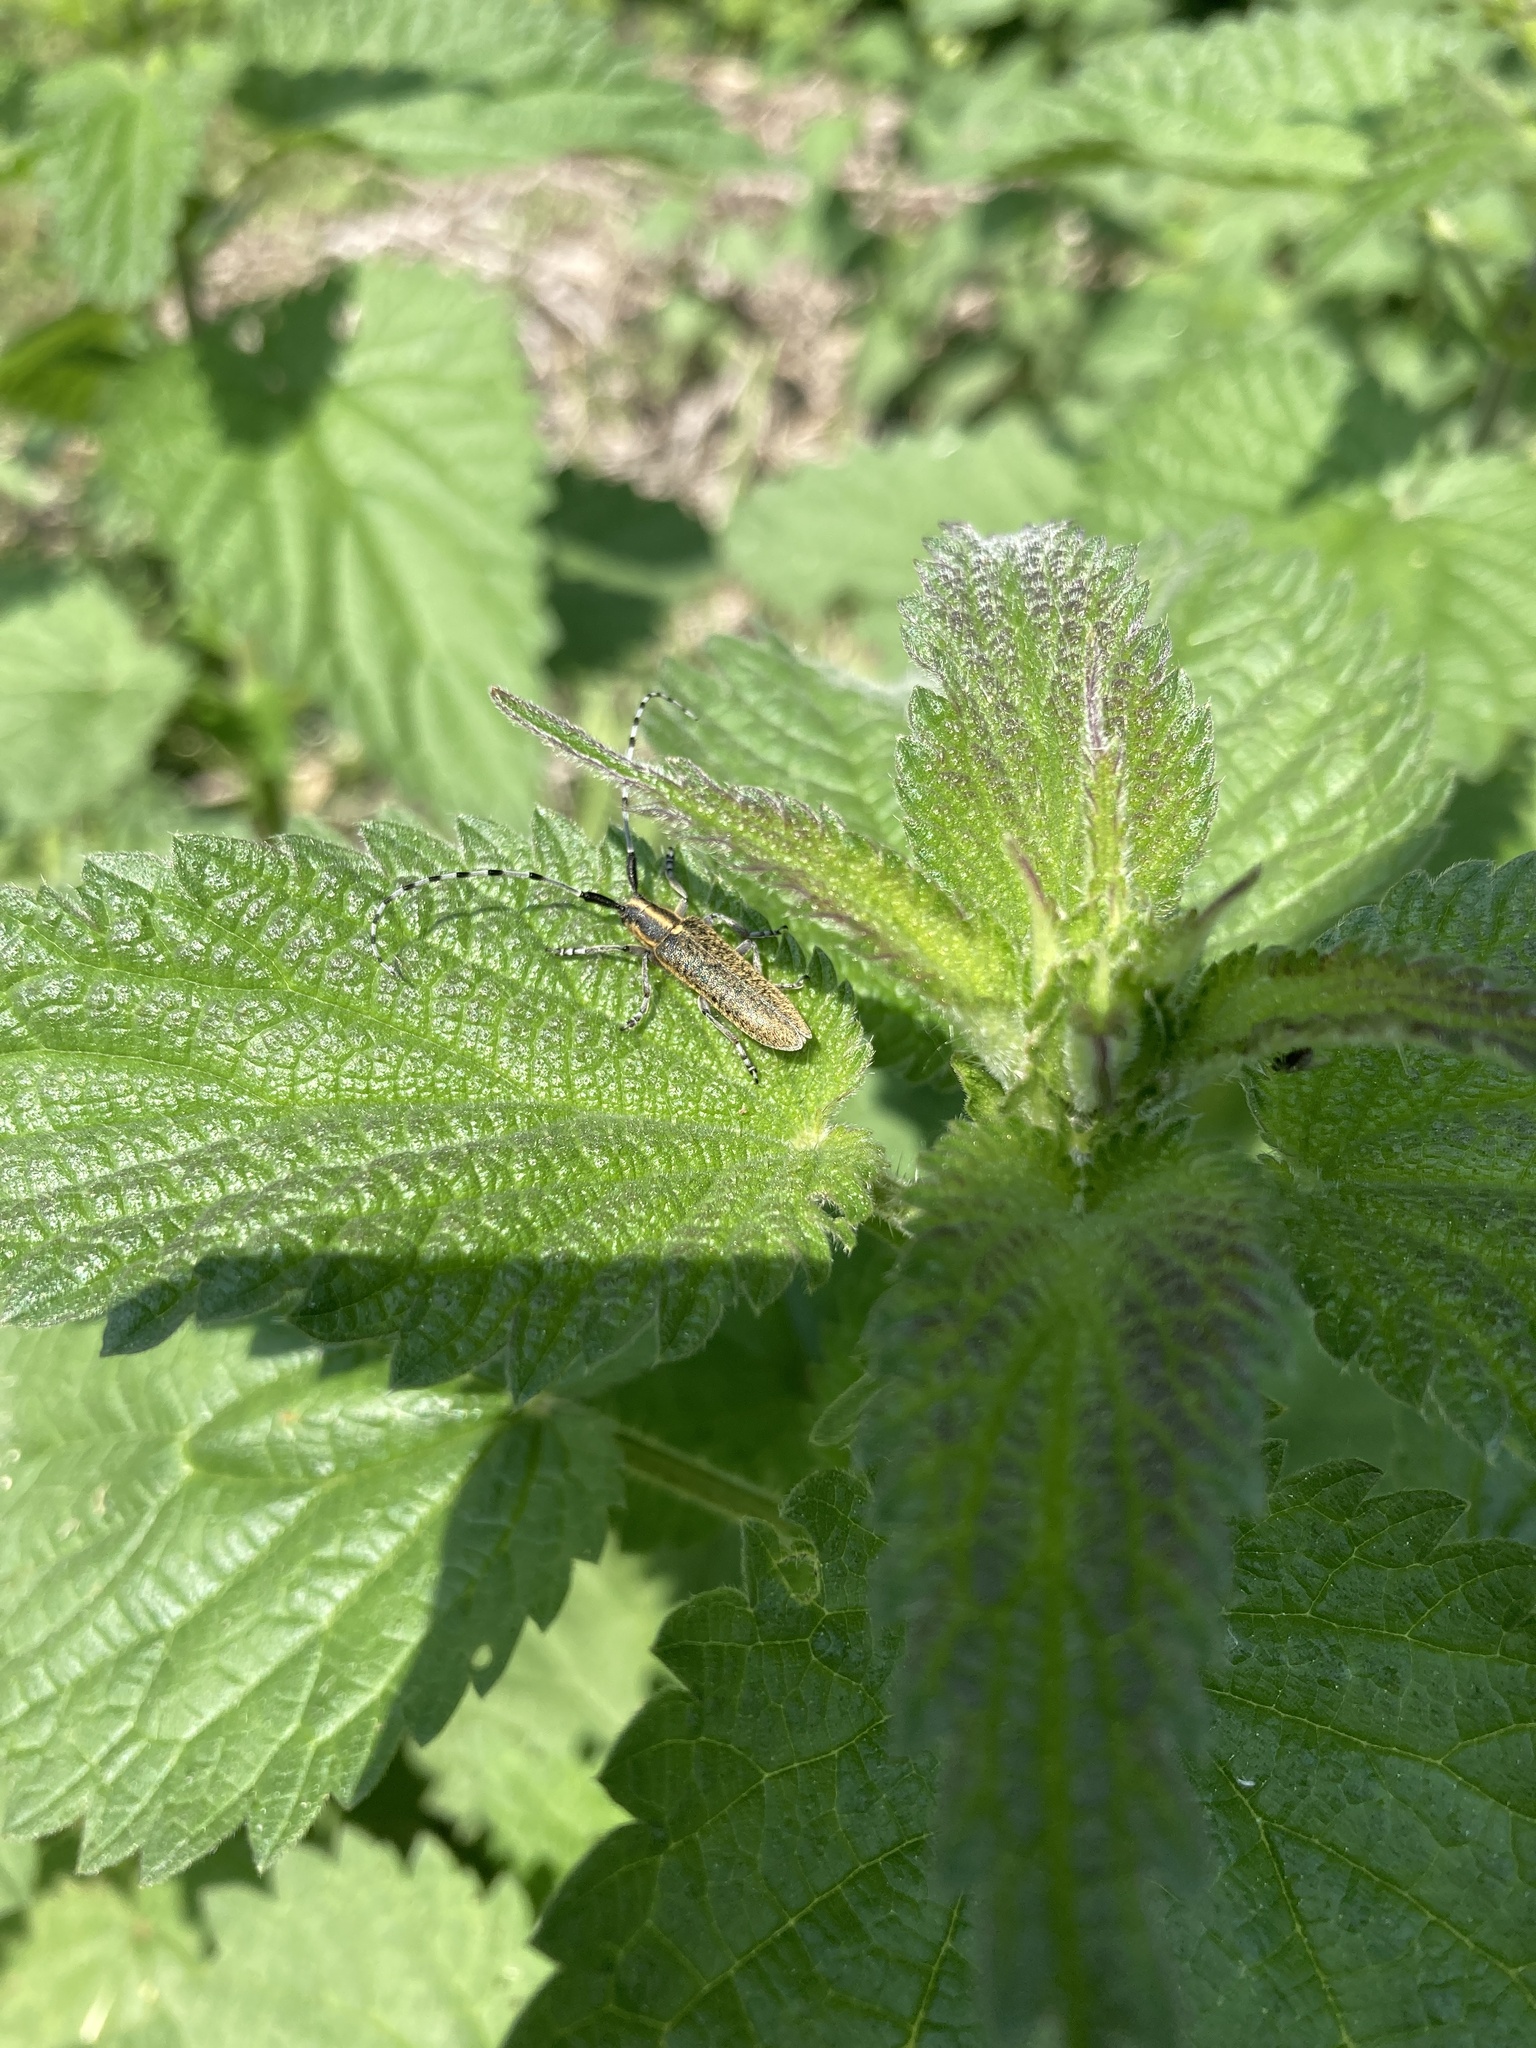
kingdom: Animalia
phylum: Arthropoda
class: Insecta
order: Coleoptera
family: Cerambycidae
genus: Agapanthia
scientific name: Agapanthia villosoviridescens
